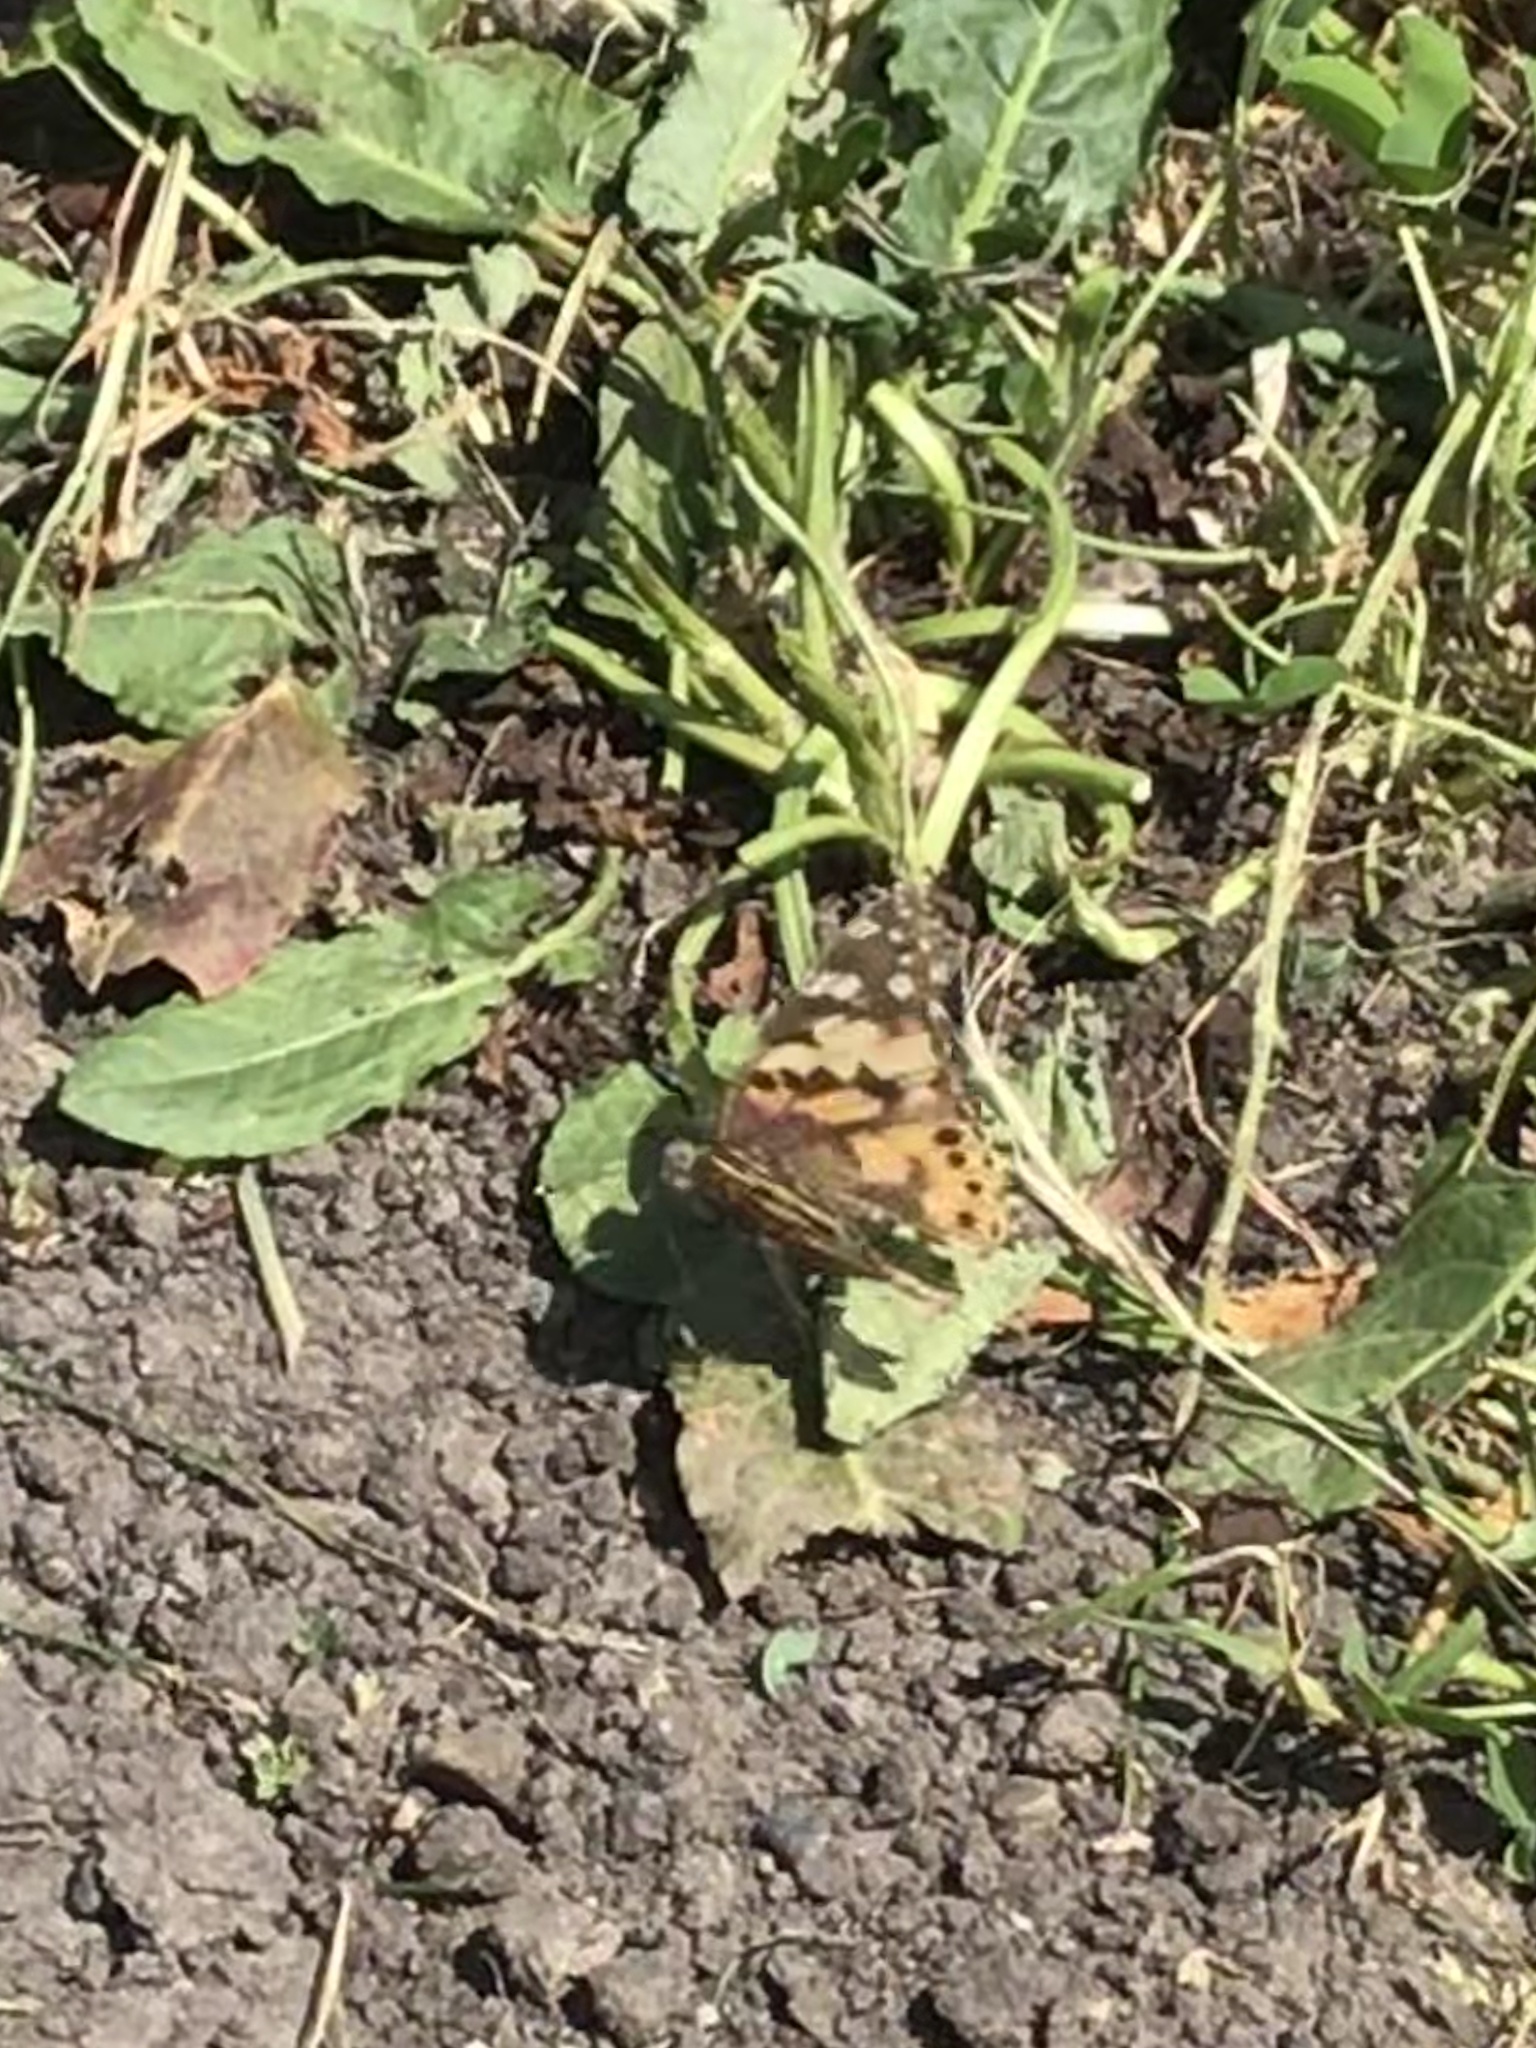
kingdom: Animalia
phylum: Arthropoda
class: Insecta
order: Lepidoptera
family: Nymphalidae
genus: Vanessa
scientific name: Vanessa cardui
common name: Painted lady
